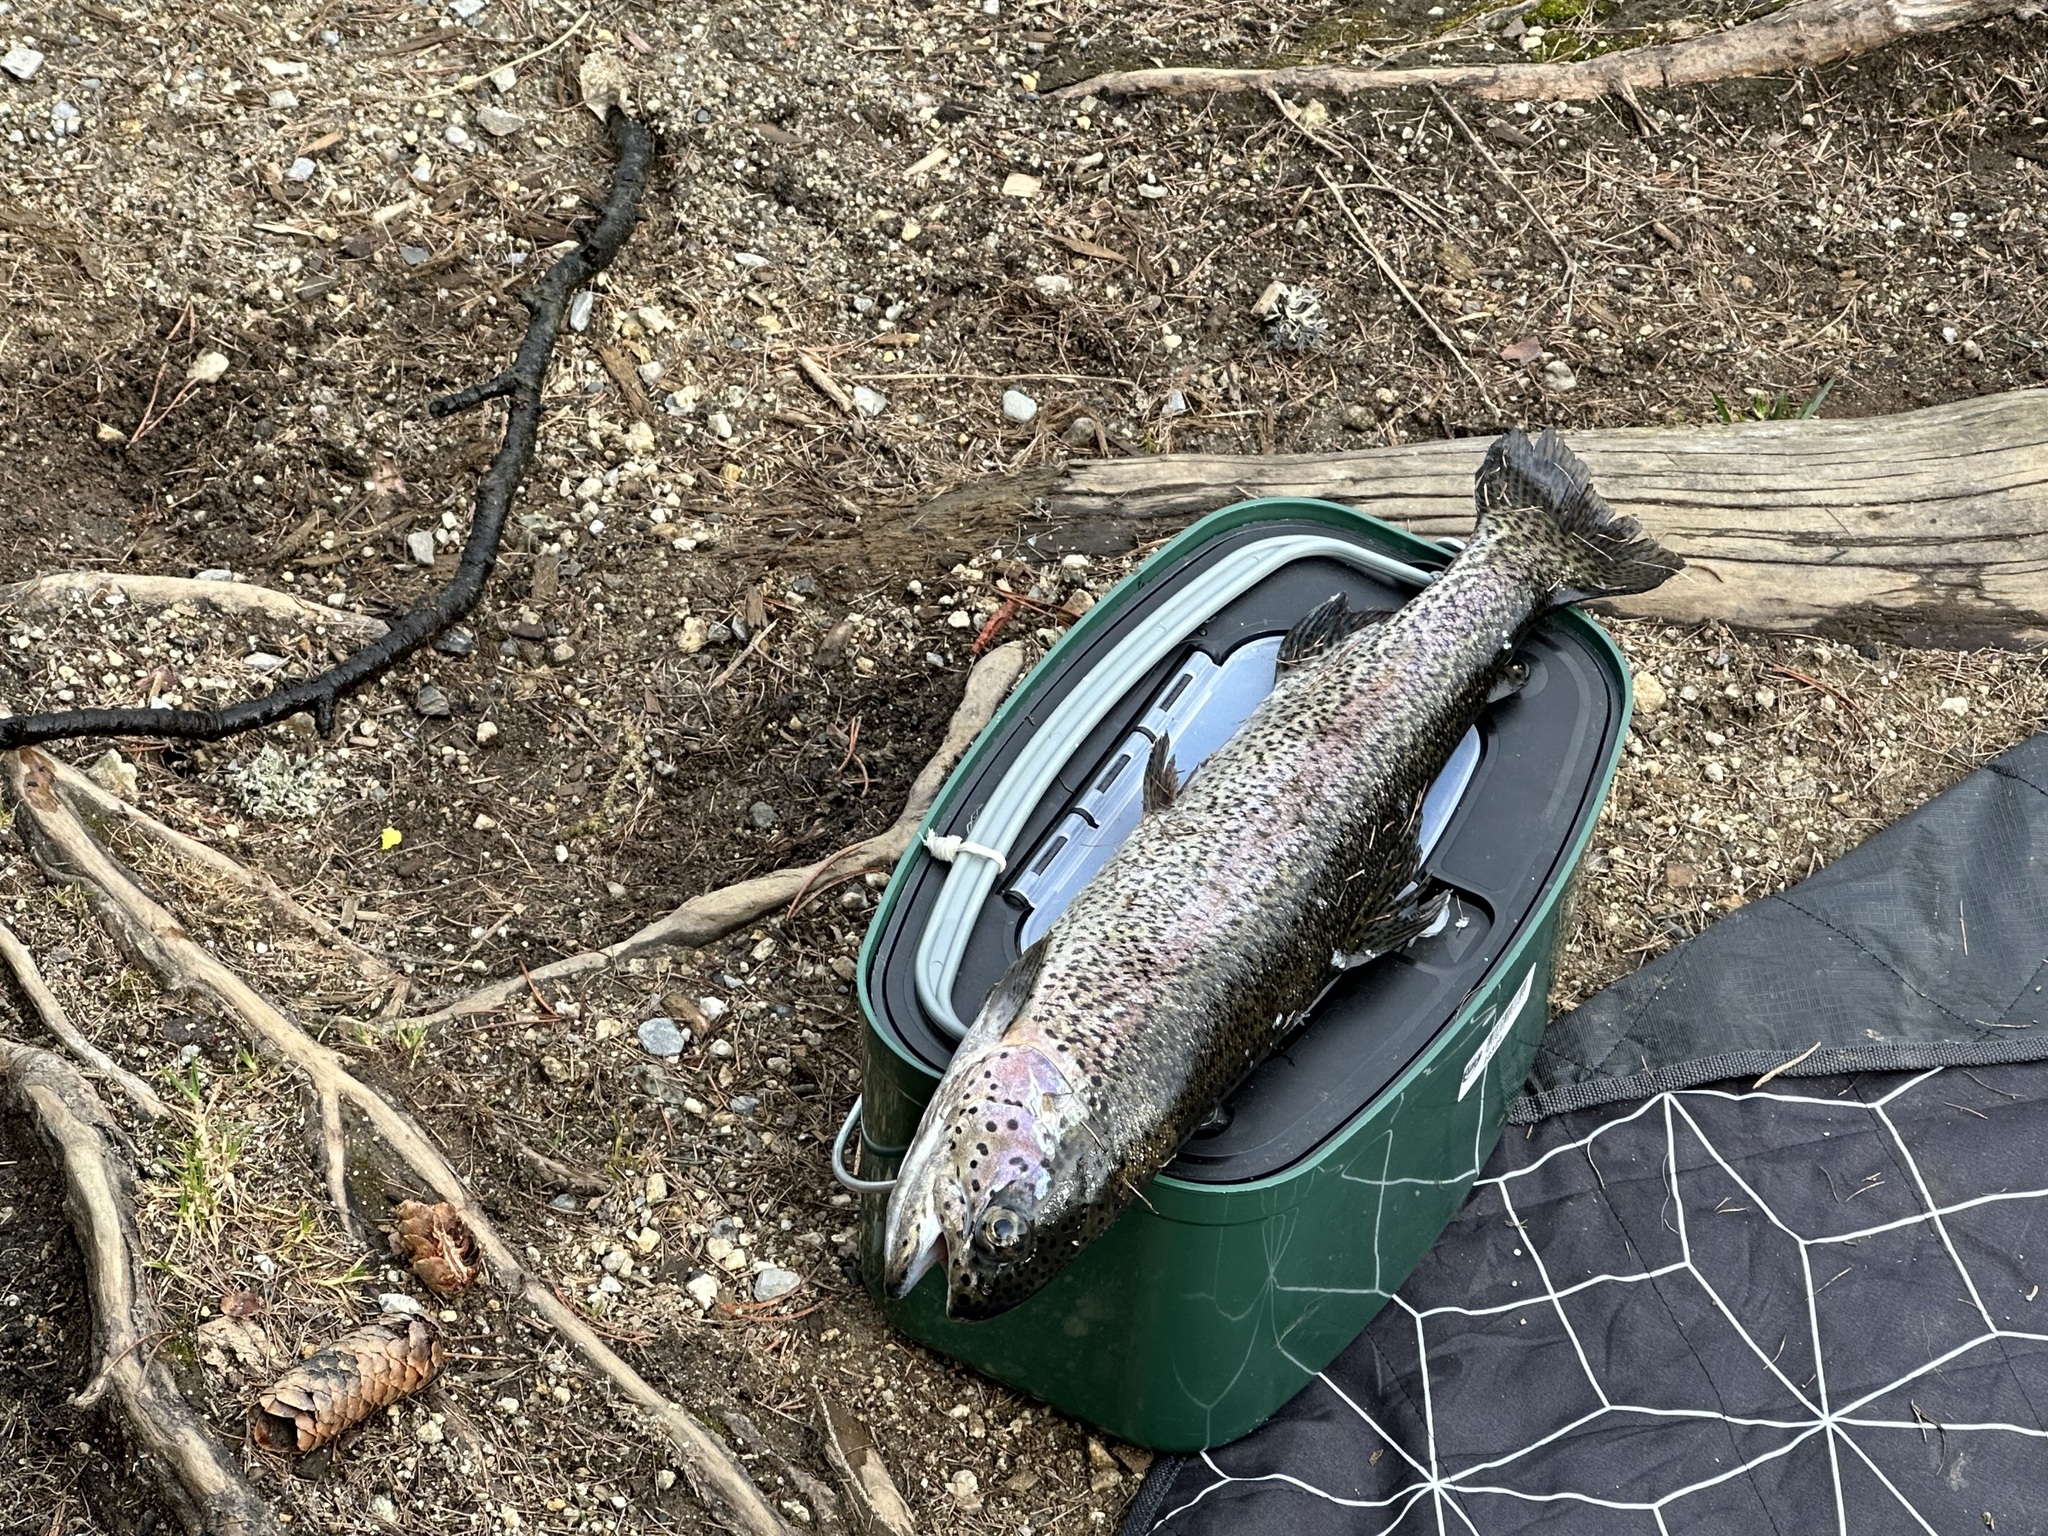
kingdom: Animalia
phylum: Chordata
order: Salmoniformes
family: Salmonidae
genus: Oncorhynchus
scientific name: Oncorhynchus mykiss
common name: Rainbow trout
